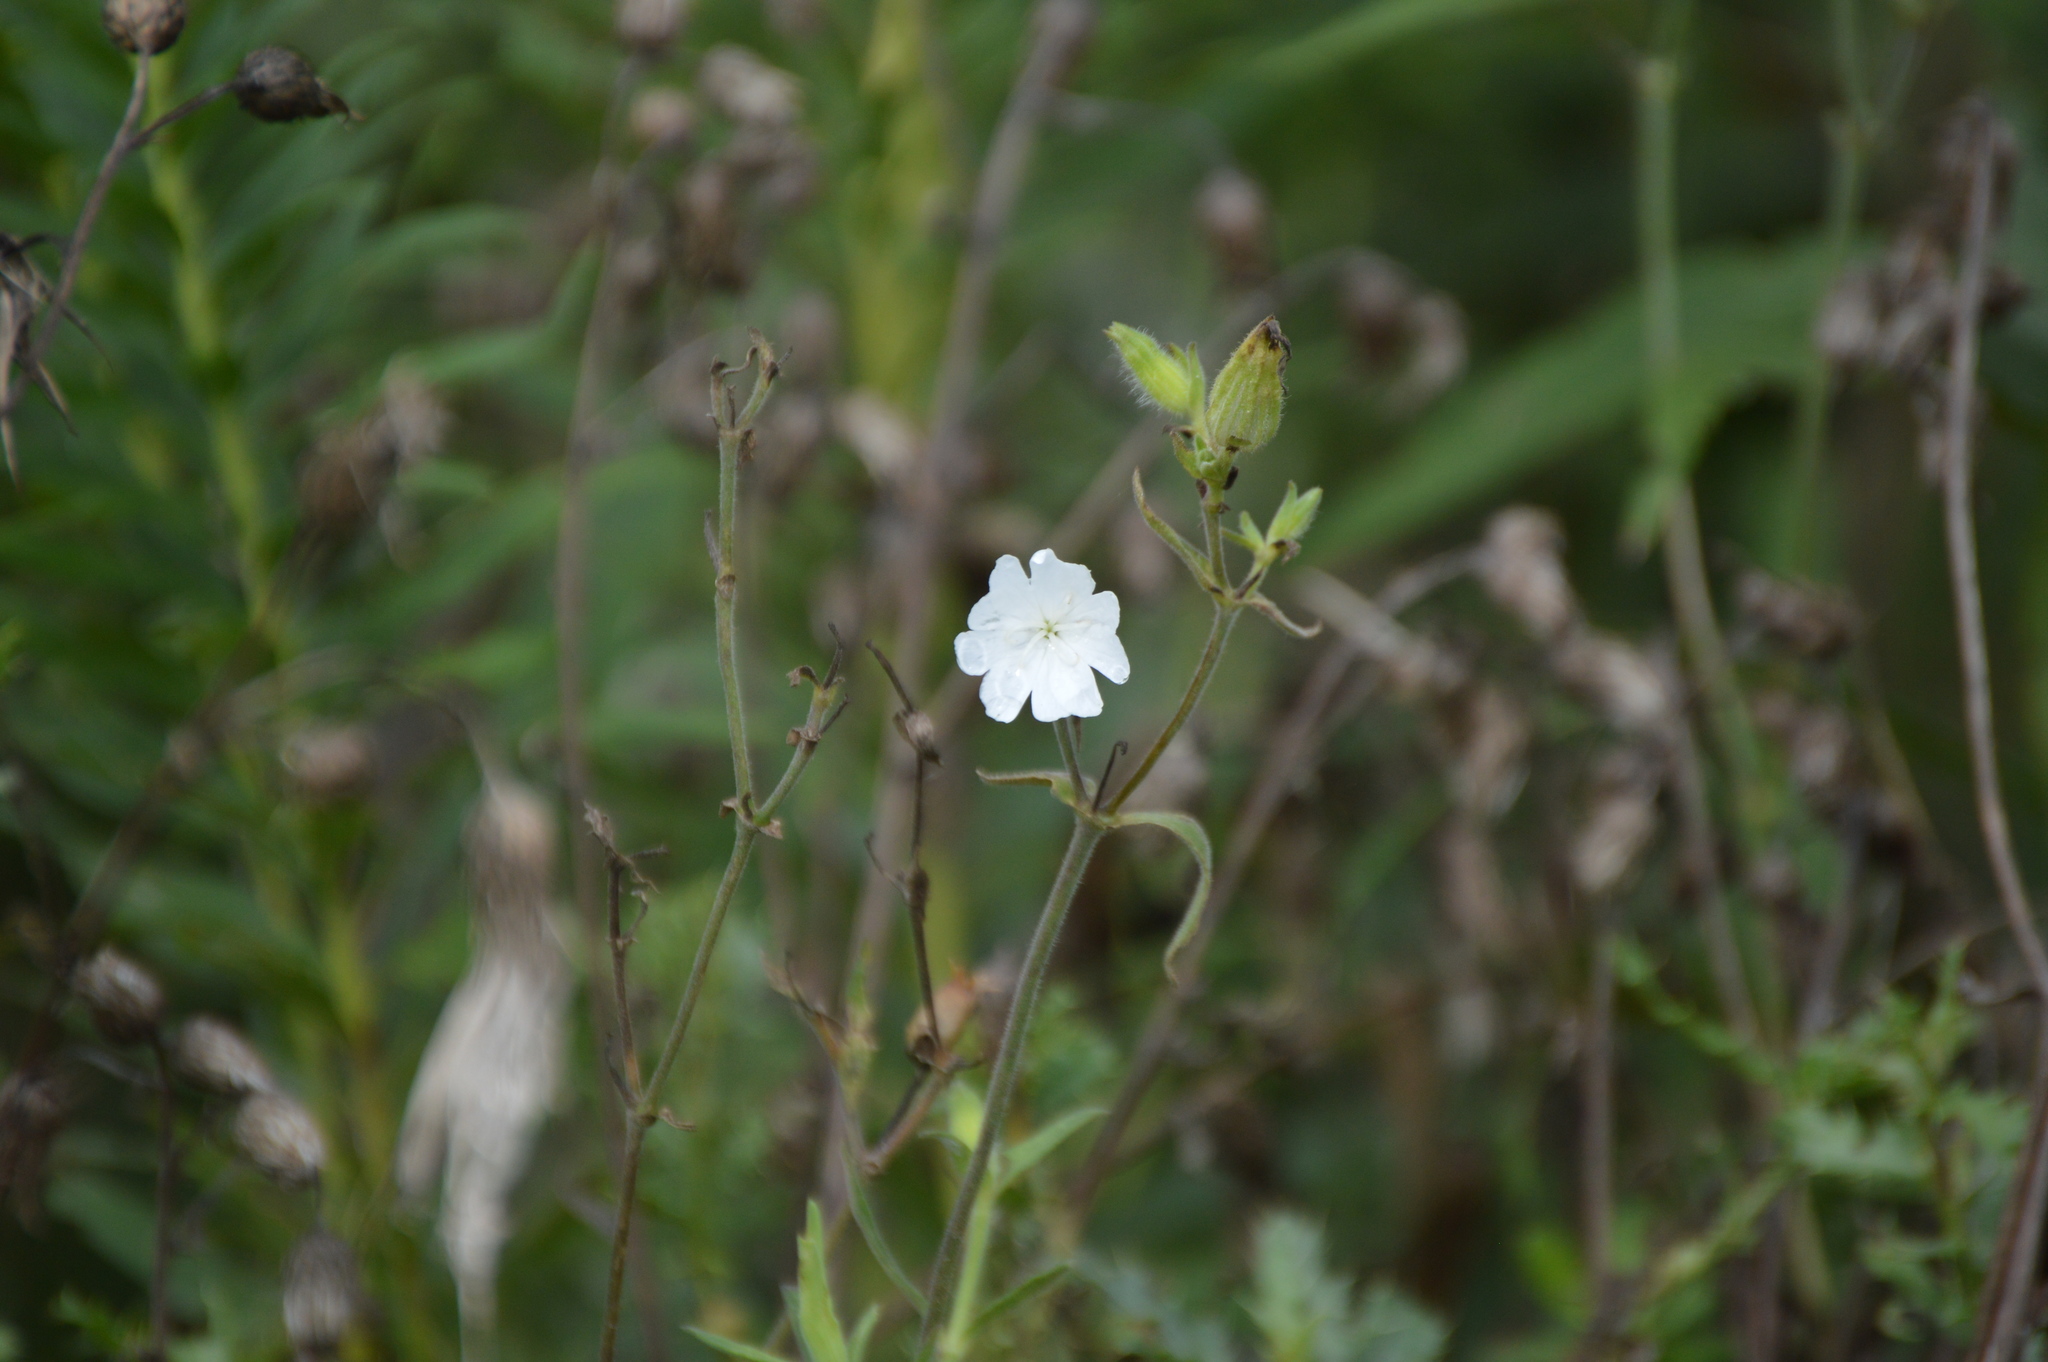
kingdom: Plantae
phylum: Tracheophyta
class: Magnoliopsida
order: Caryophyllales
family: Caryophyllaceae
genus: Silene
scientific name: Silene latifolia
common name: White campion
